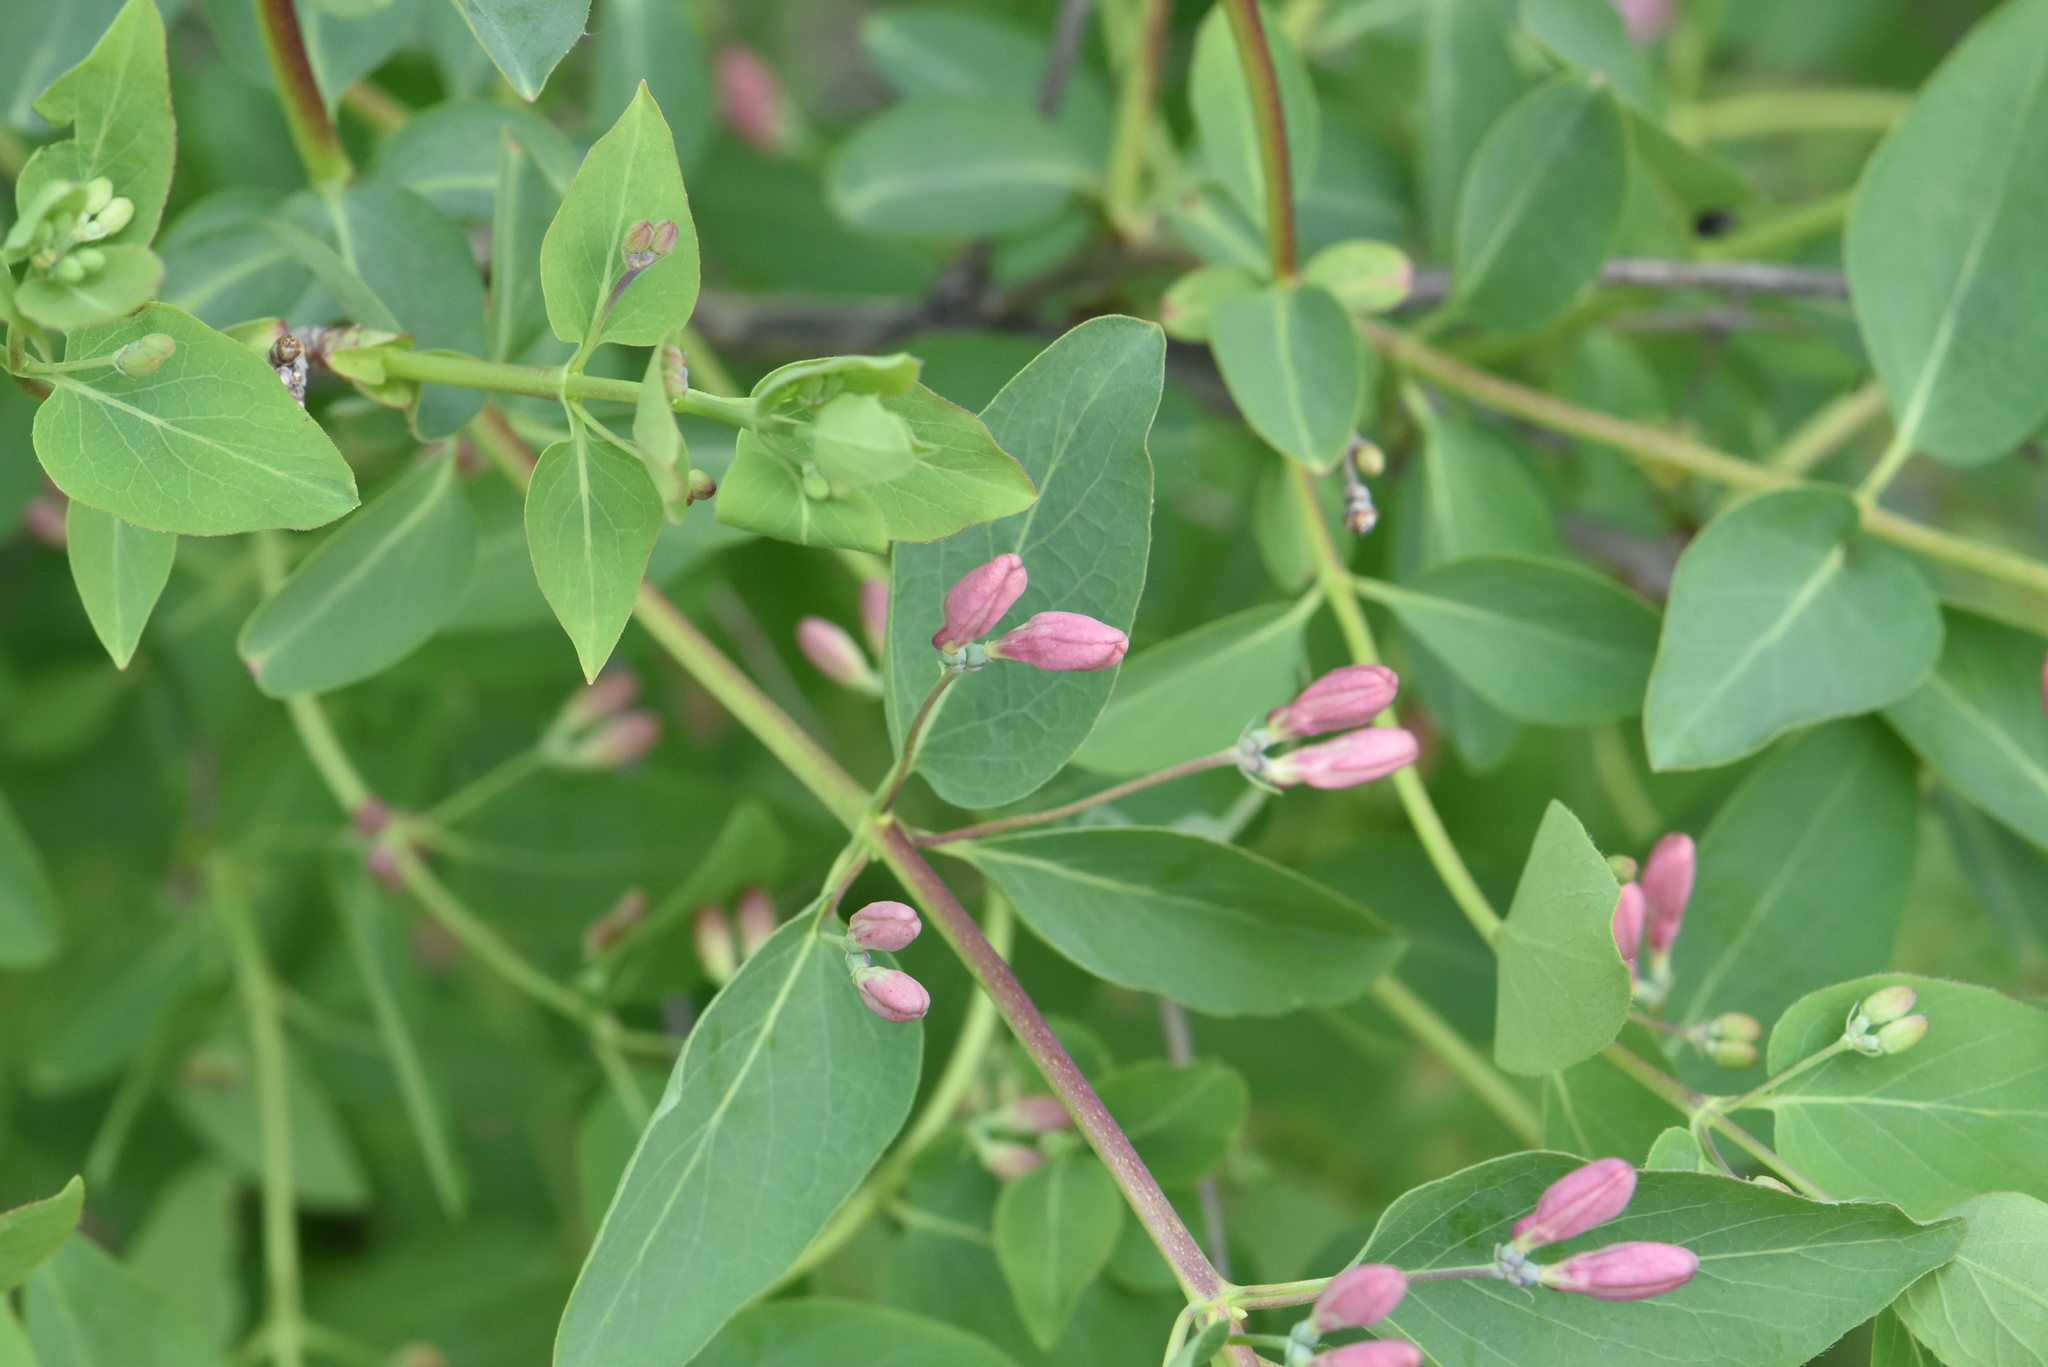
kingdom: Plantae
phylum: Tracheophyta
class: Magnoliopsida
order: Dipsacales
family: Caprifoliaceae
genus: Lonicera
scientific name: Lonicera tatarica
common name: Tatarian honeysuckle
